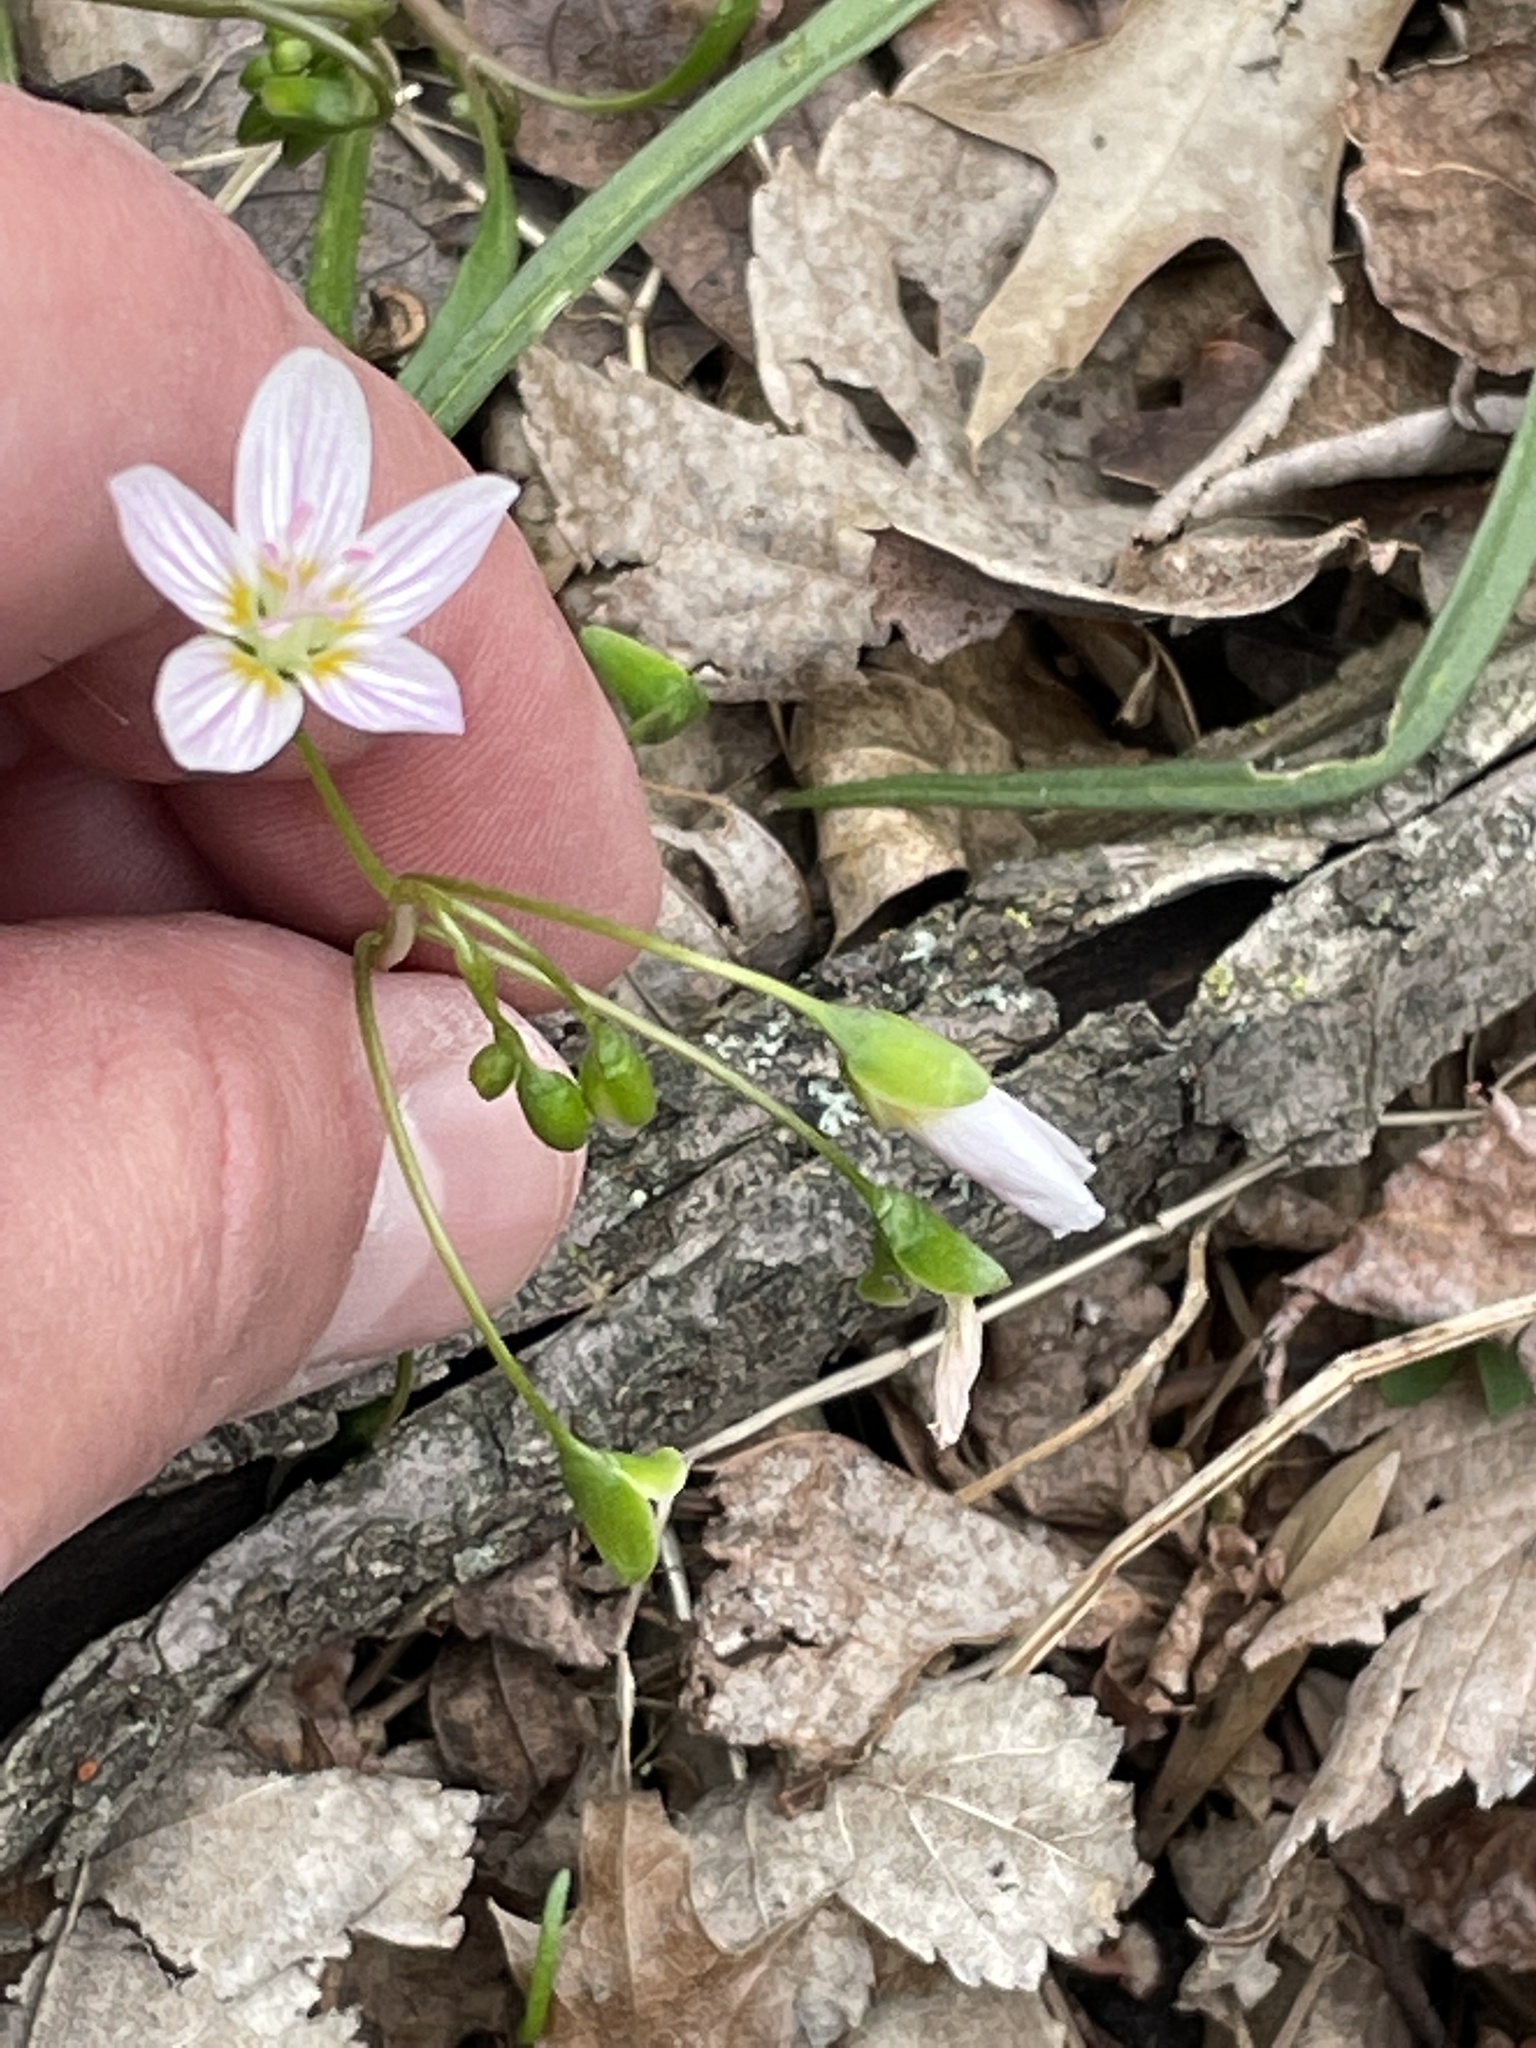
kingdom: Plantae
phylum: Tracheophyta
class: Magnoliopsida
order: Caryophyllales
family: Montiaceae
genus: Claytonia
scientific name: Claytonia virginica
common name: Virginia springbeauty
